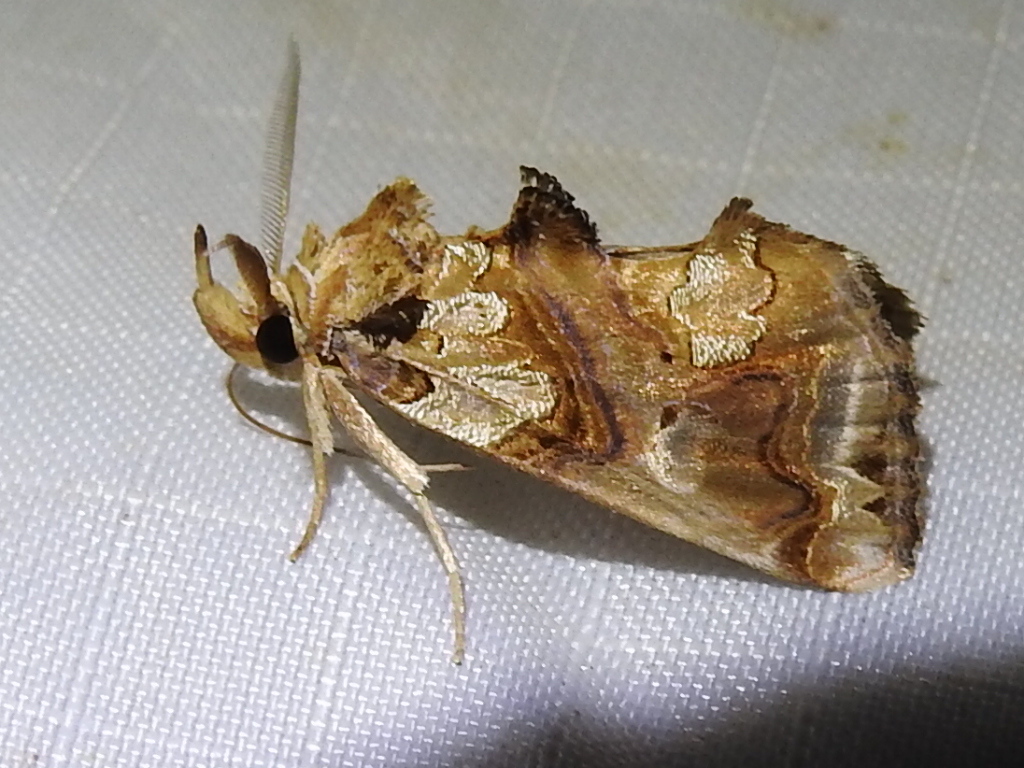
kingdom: Animalia
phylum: Arthropoda
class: Insecta
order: Lepidoptera
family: Erebidae
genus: Plusiodonta
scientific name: Plusiodonta compressipalpis
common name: Moonseed moth
